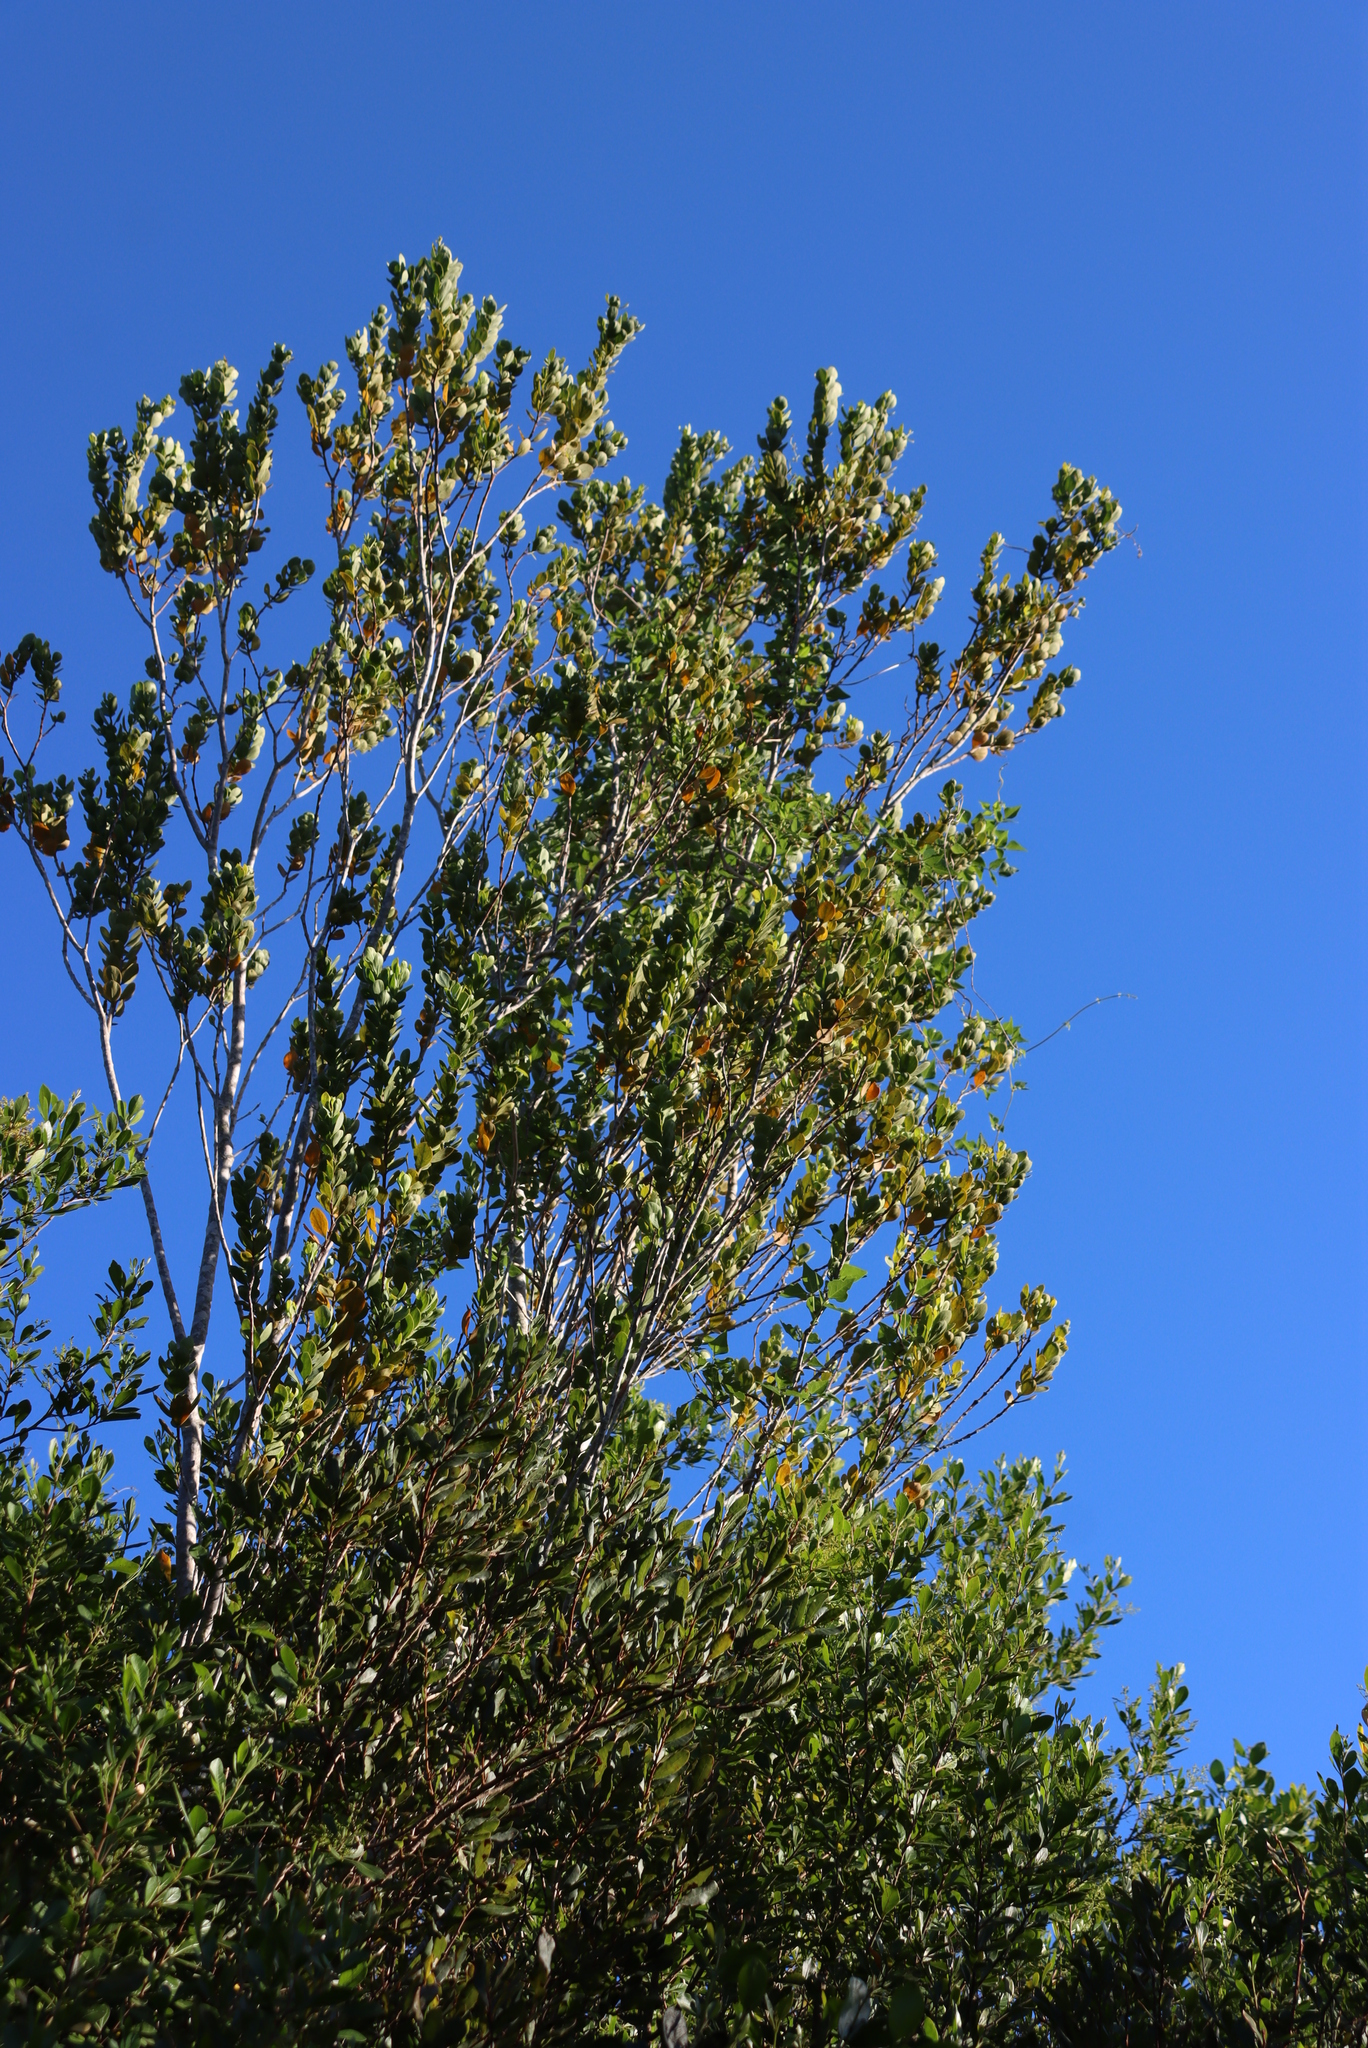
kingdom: Plantae
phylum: Tracheophyta
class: Magnoliopsida
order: Santalales
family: Santalaceae
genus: Osyris
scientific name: Osyris compressa
